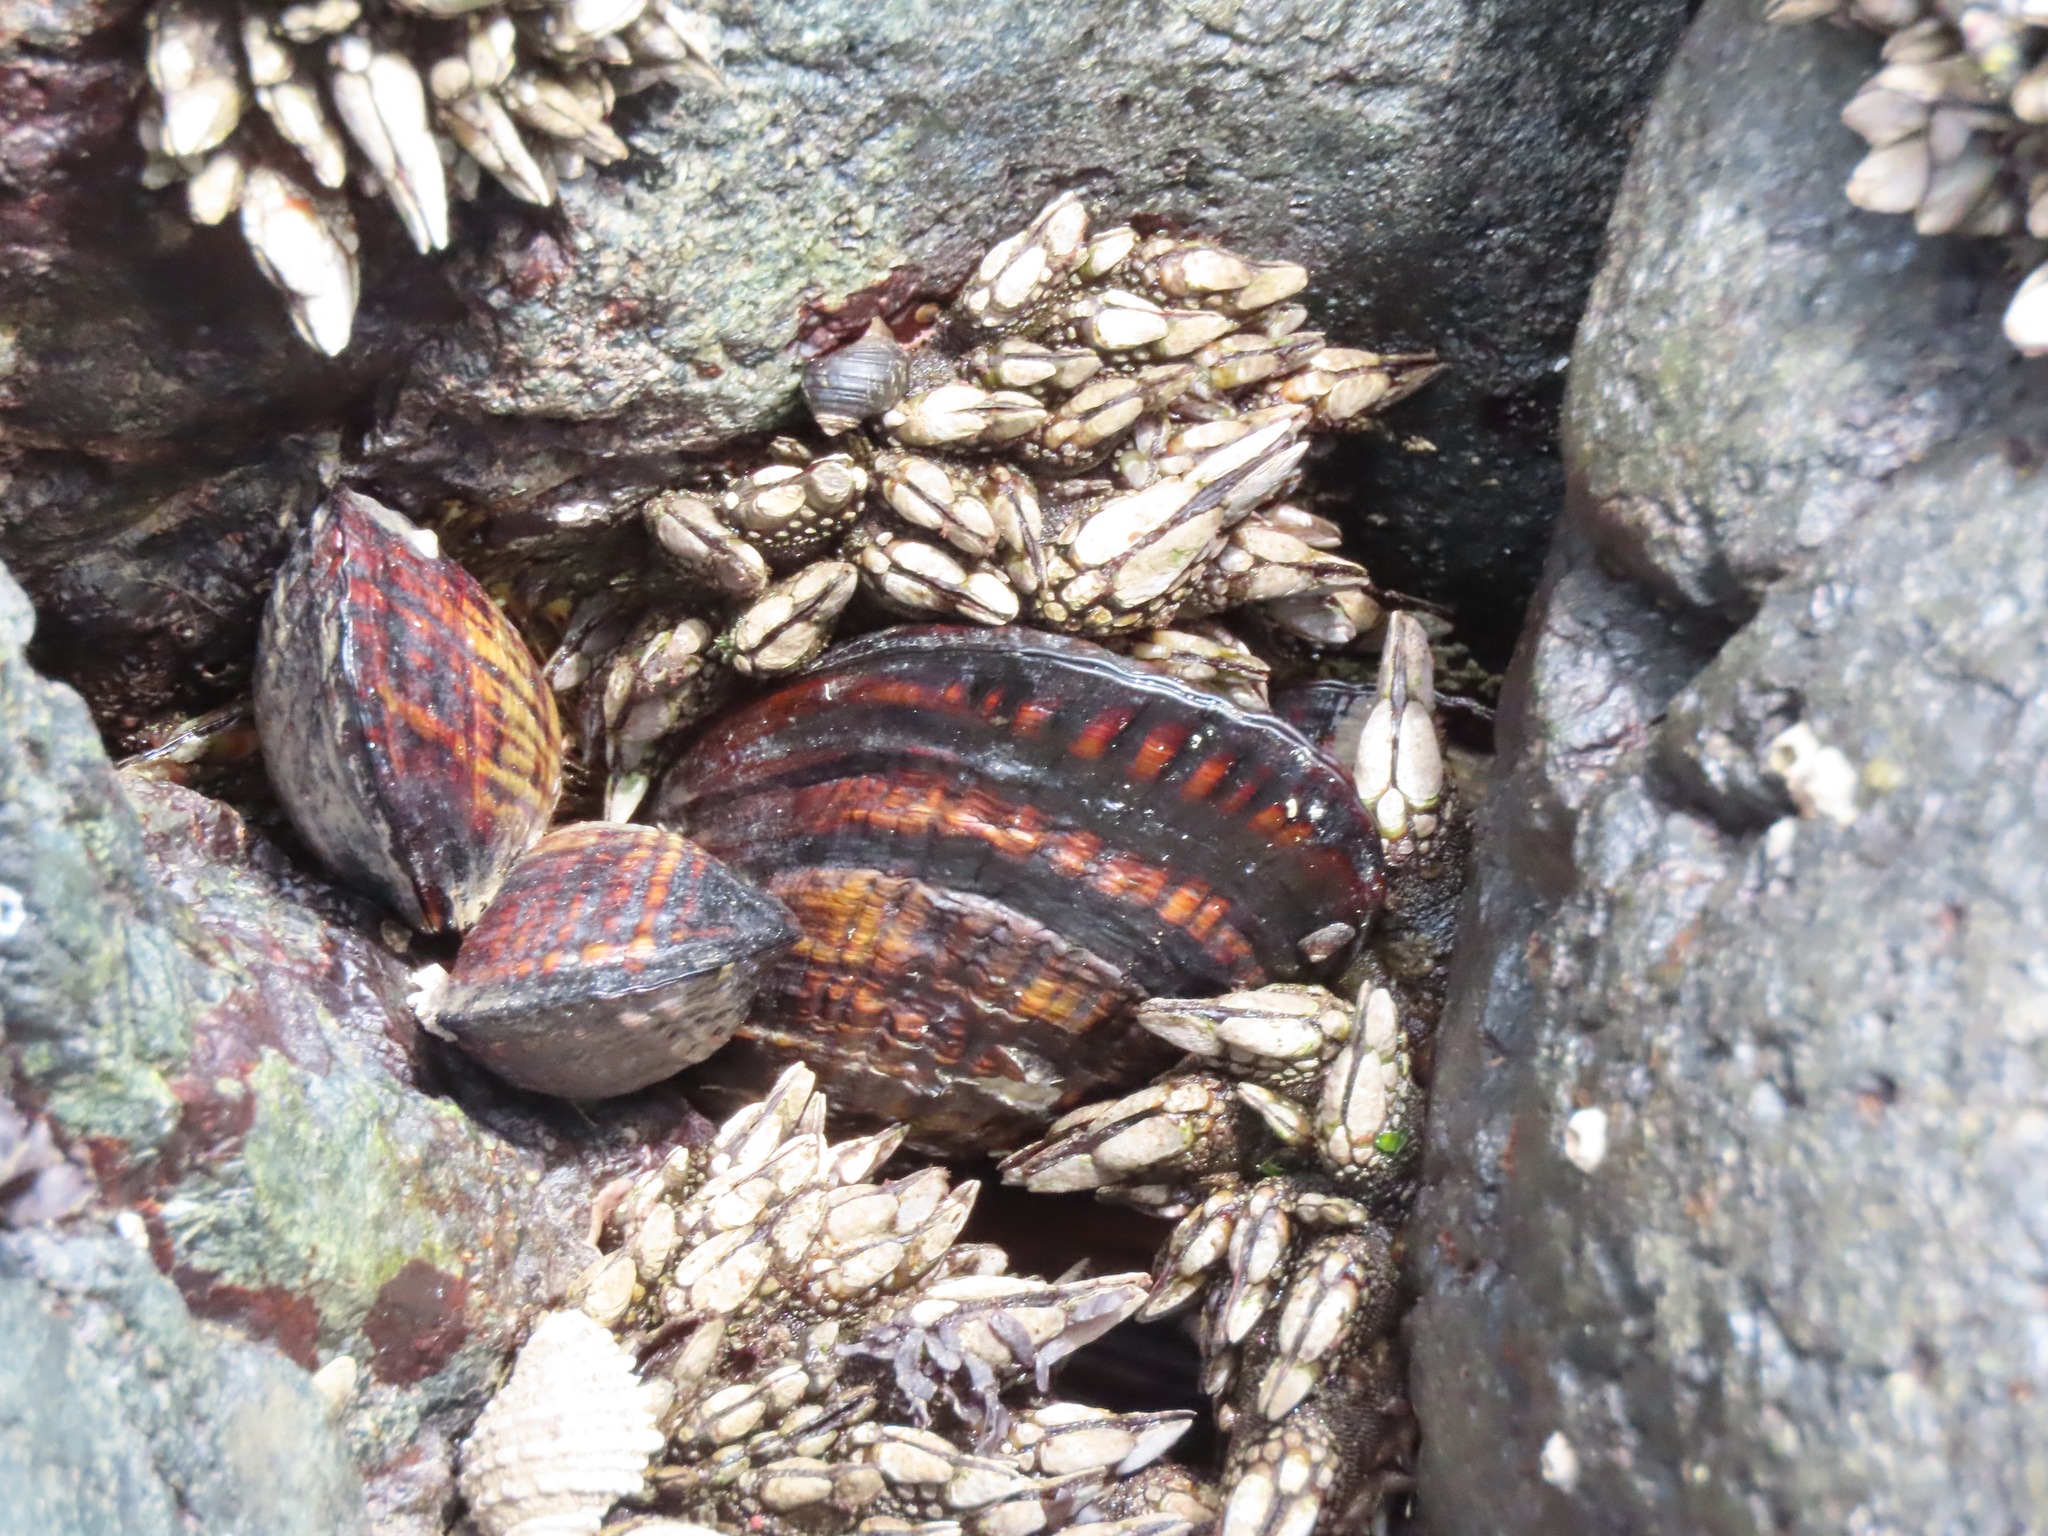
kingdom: Animalia
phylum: Mollusca
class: Bivalvia
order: Mytilida
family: Mytilidae
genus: Mytilus
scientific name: Mytilus californianus
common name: California mussel
